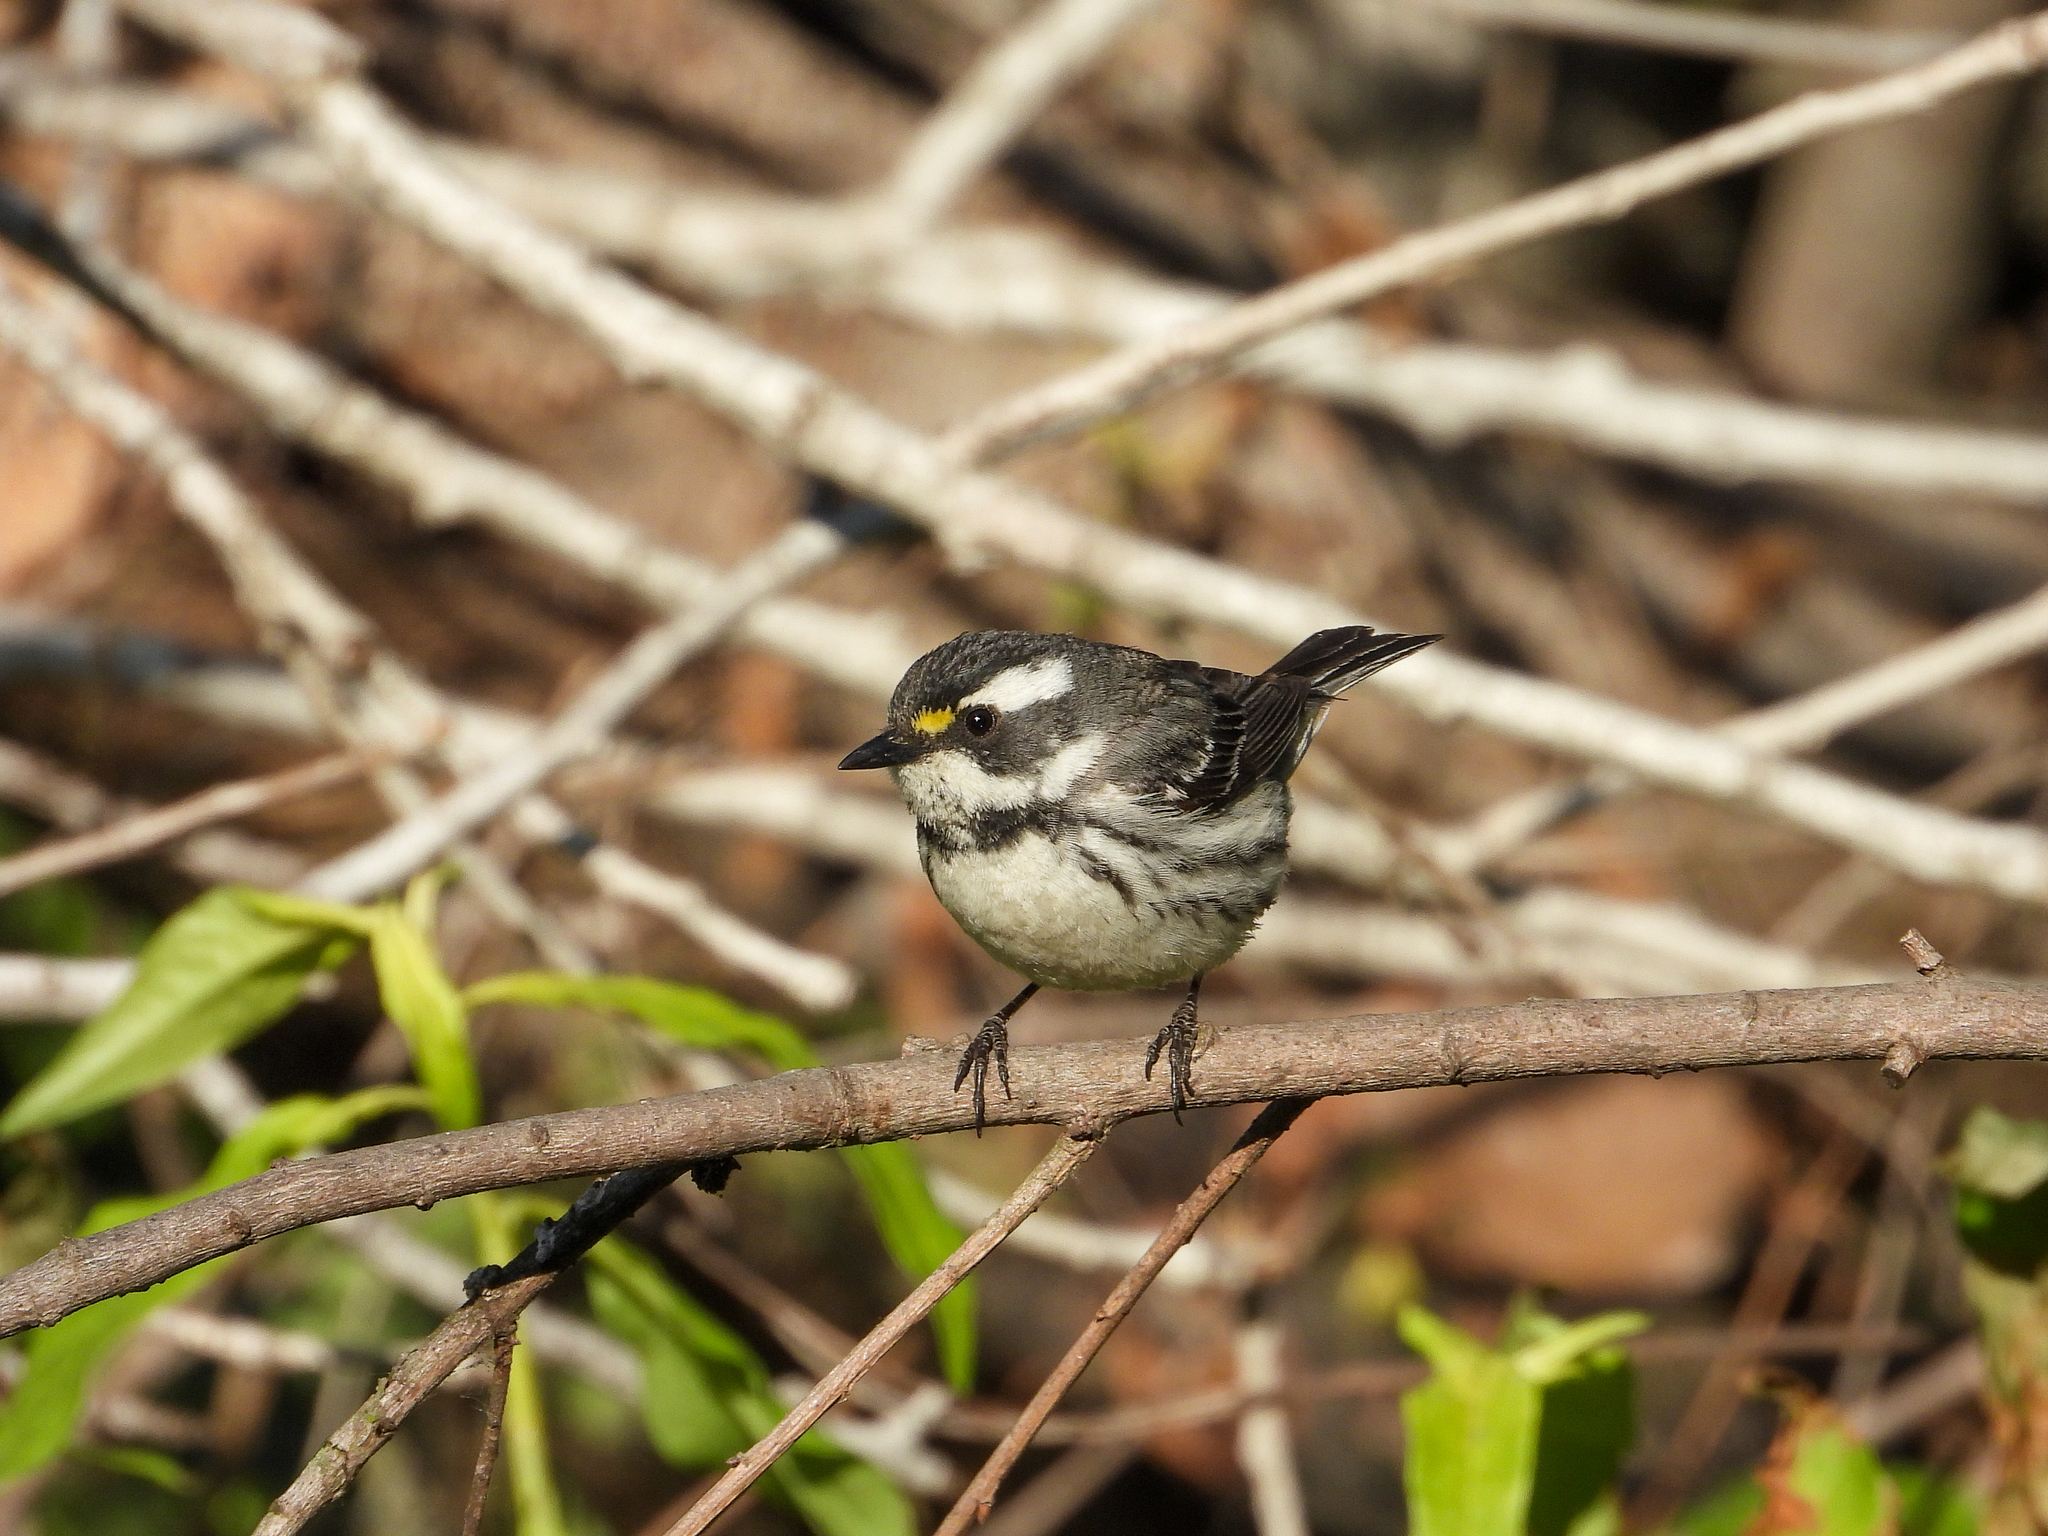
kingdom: Animalia
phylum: Chordata
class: Aves
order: Passeriformes
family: Parulidae
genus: Setophaga
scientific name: Setophaga nigrescens
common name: Black-throated gray warbler
